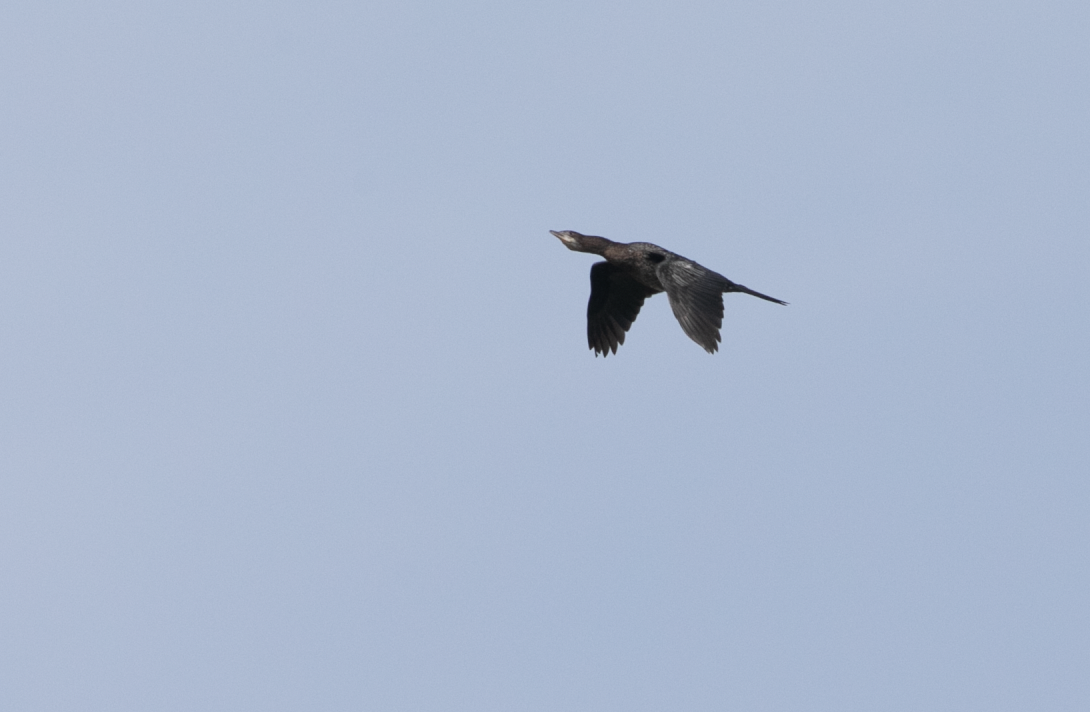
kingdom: Animalia
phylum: Chordata
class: Aves
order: Suliformes
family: Phalacrocoracidae
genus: Microcarbo
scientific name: Microcarbo pygmaeus
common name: Pygmy cormorant
